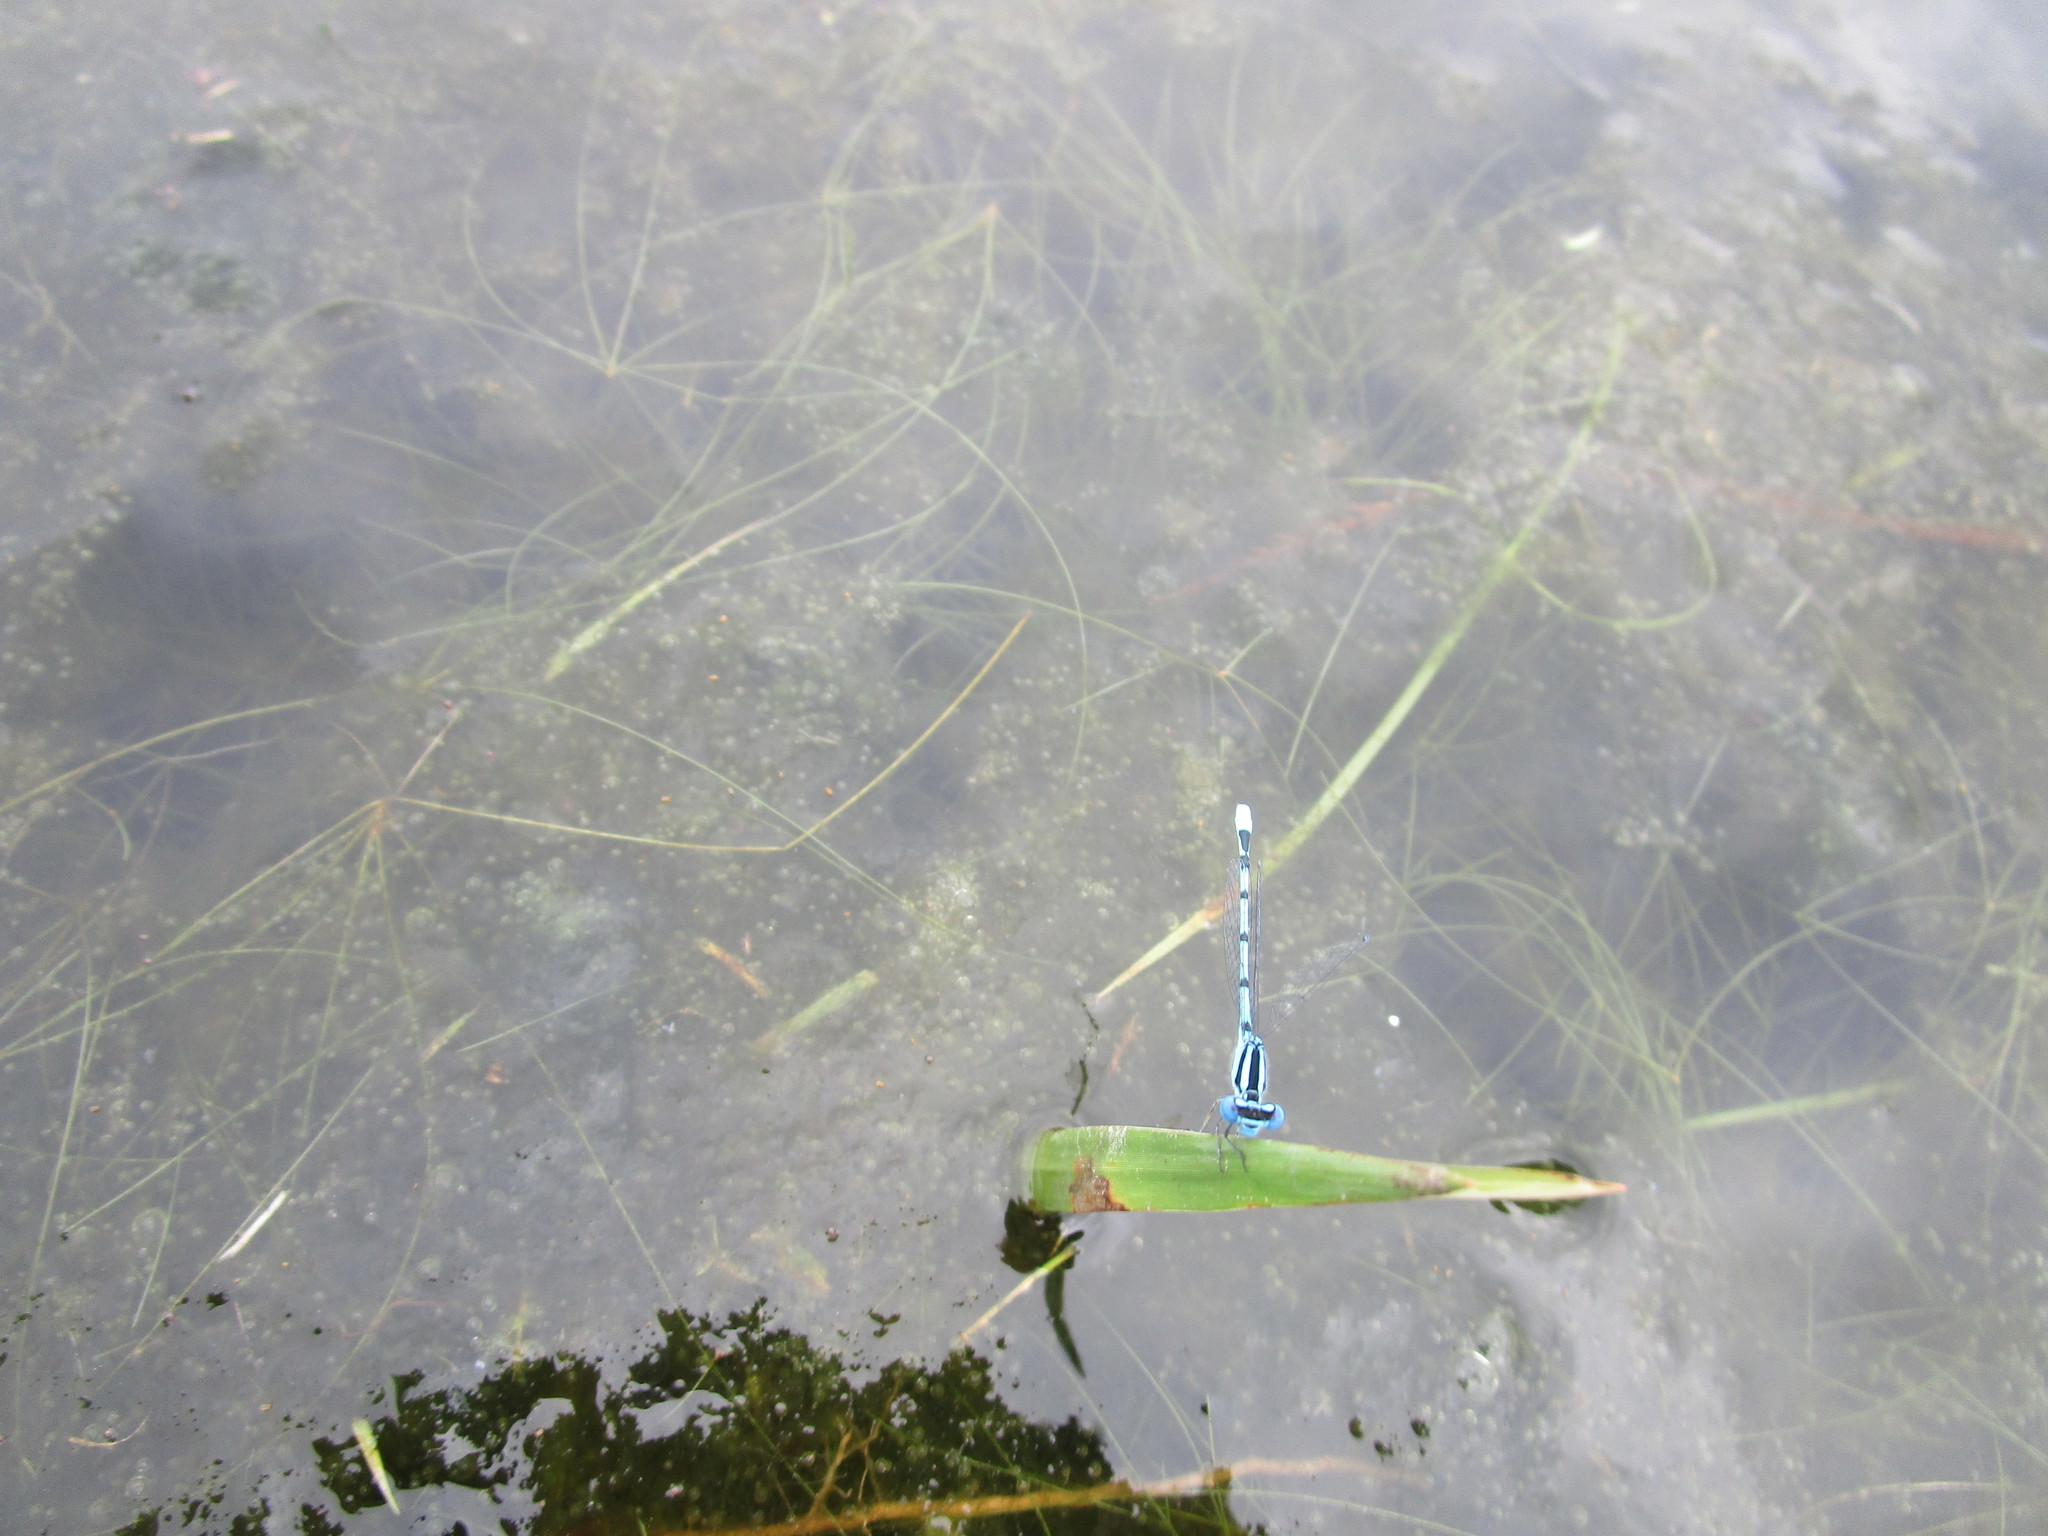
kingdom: Animalia
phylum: Arthropoda
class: Insecta
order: Odonata
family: Coenagrionidae
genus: Enallagma
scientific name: Enallagma doubledayi
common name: Atlantic bluet
